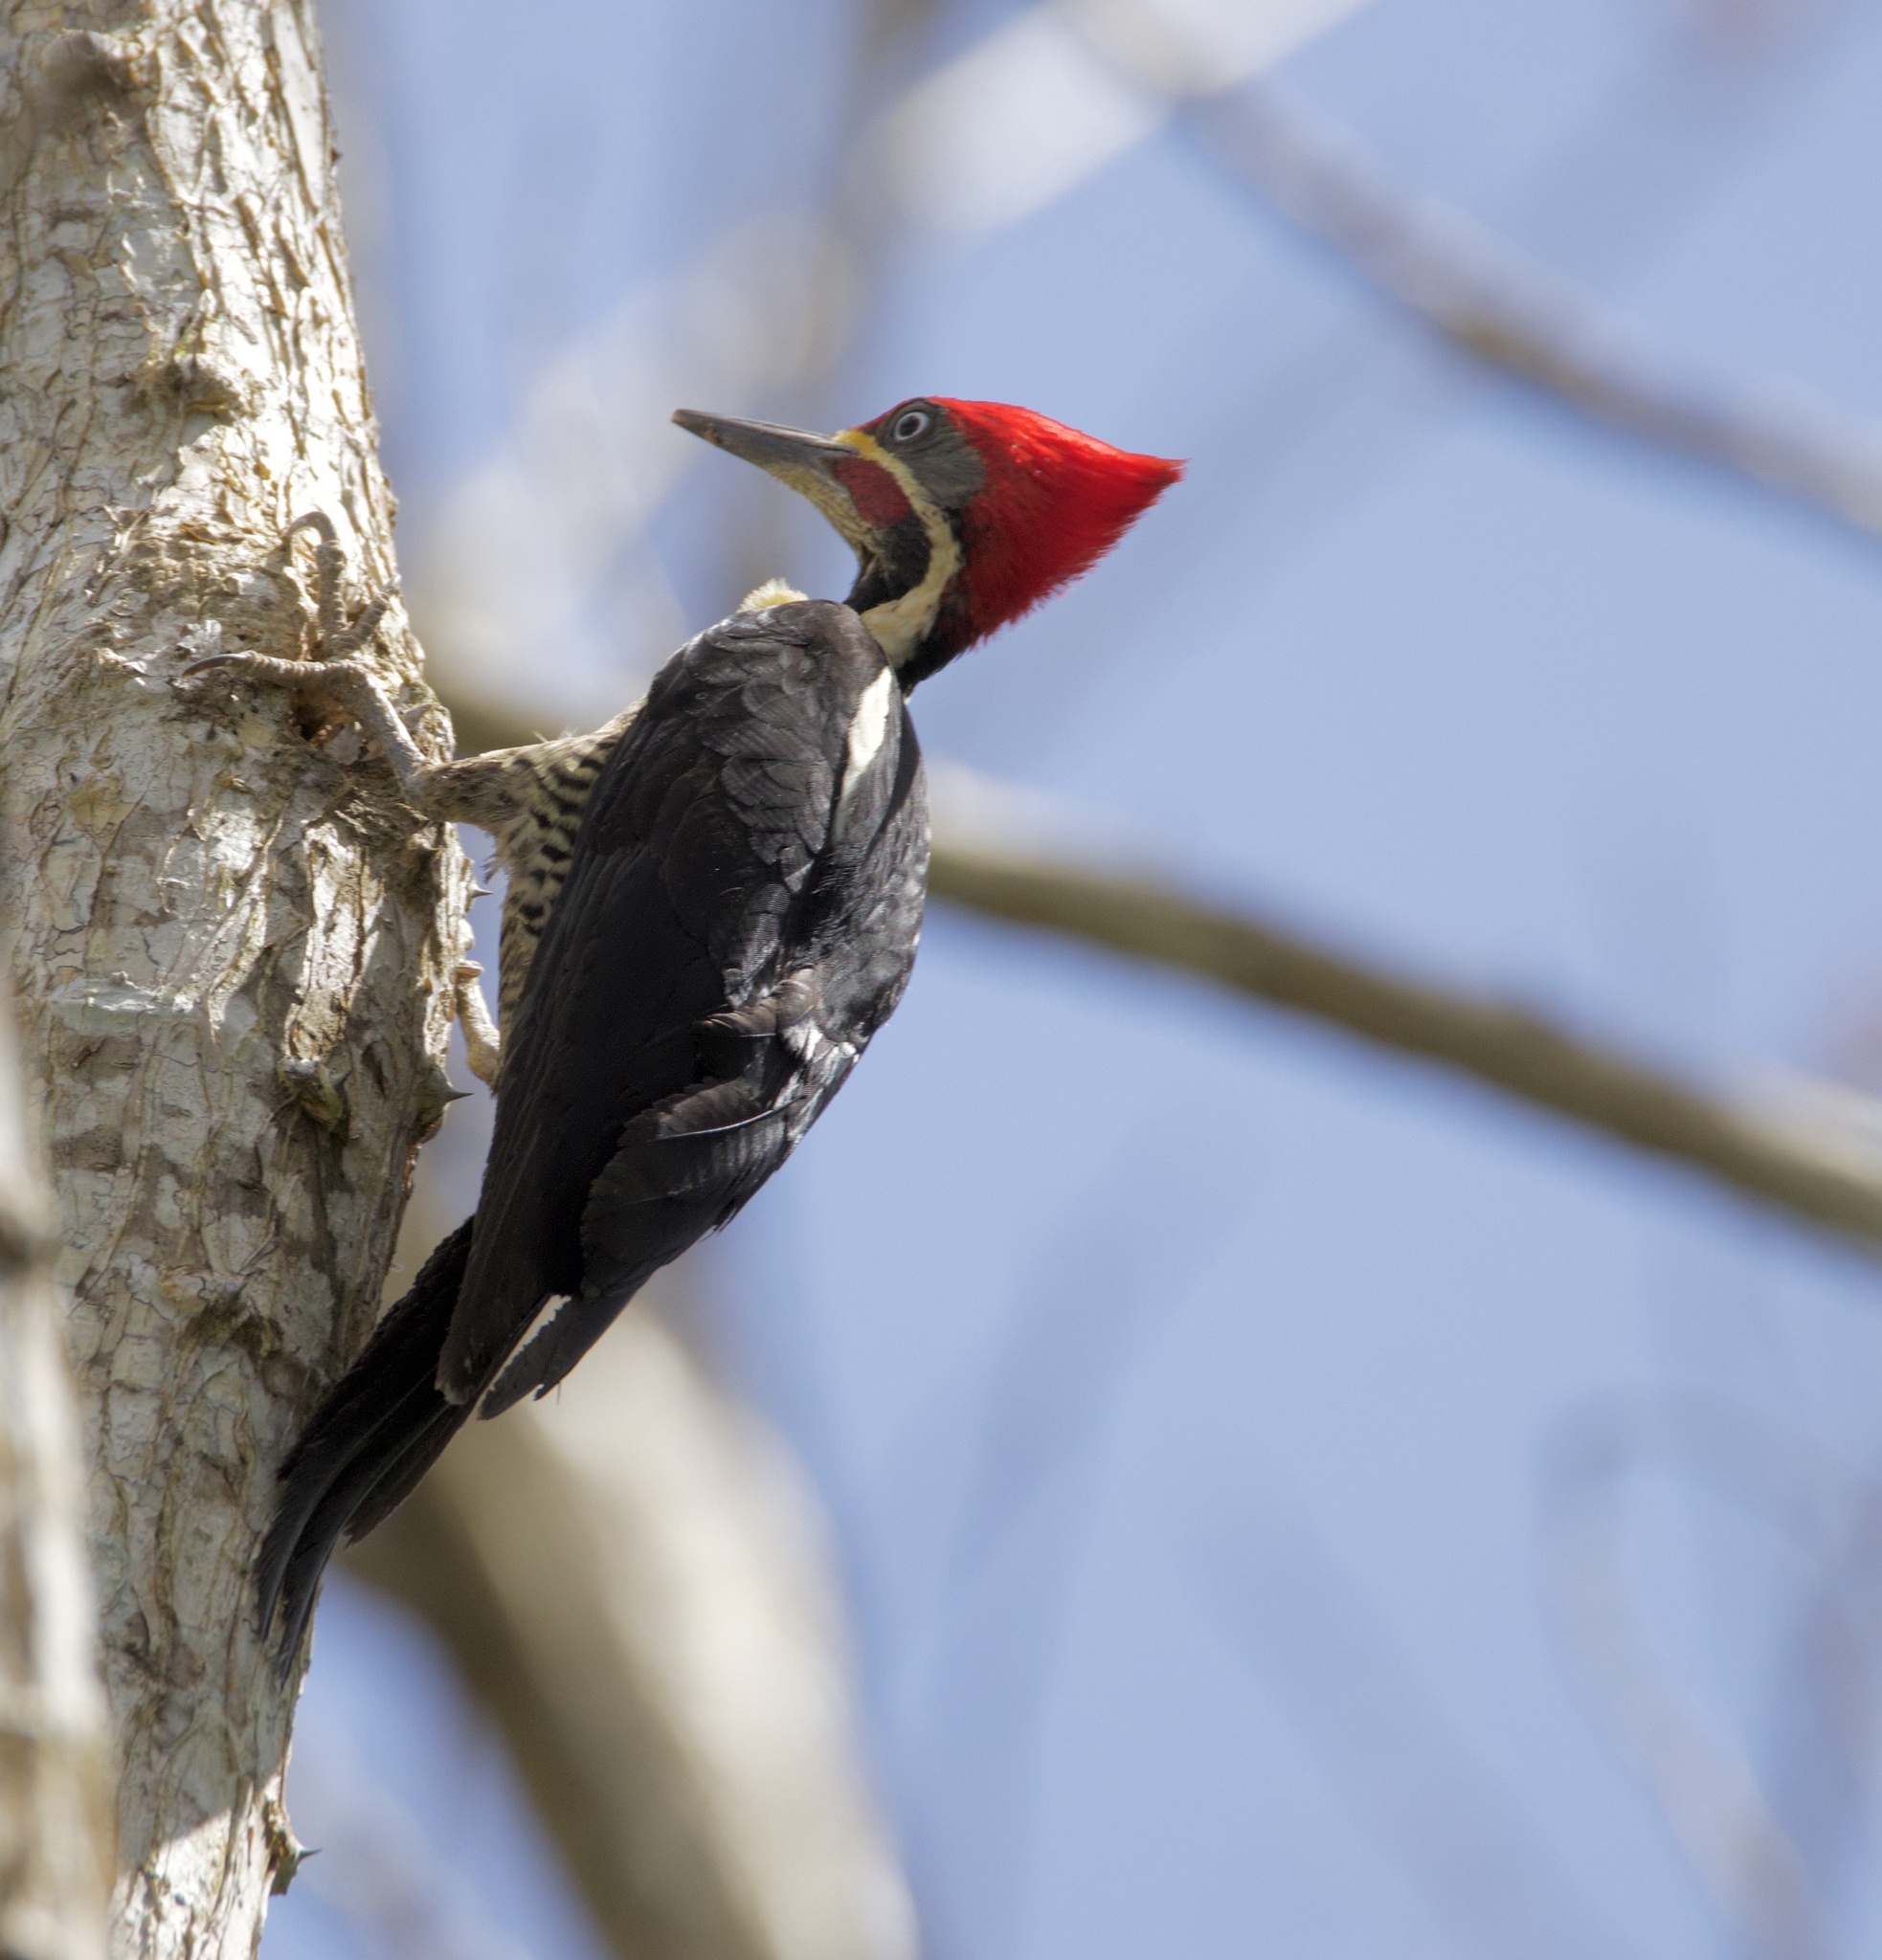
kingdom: Animalia
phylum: Chordata
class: Aves
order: Piciformes
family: Picidae
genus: Dryocopus
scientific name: Dryocopus lineatus
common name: Lineated woodpecker
